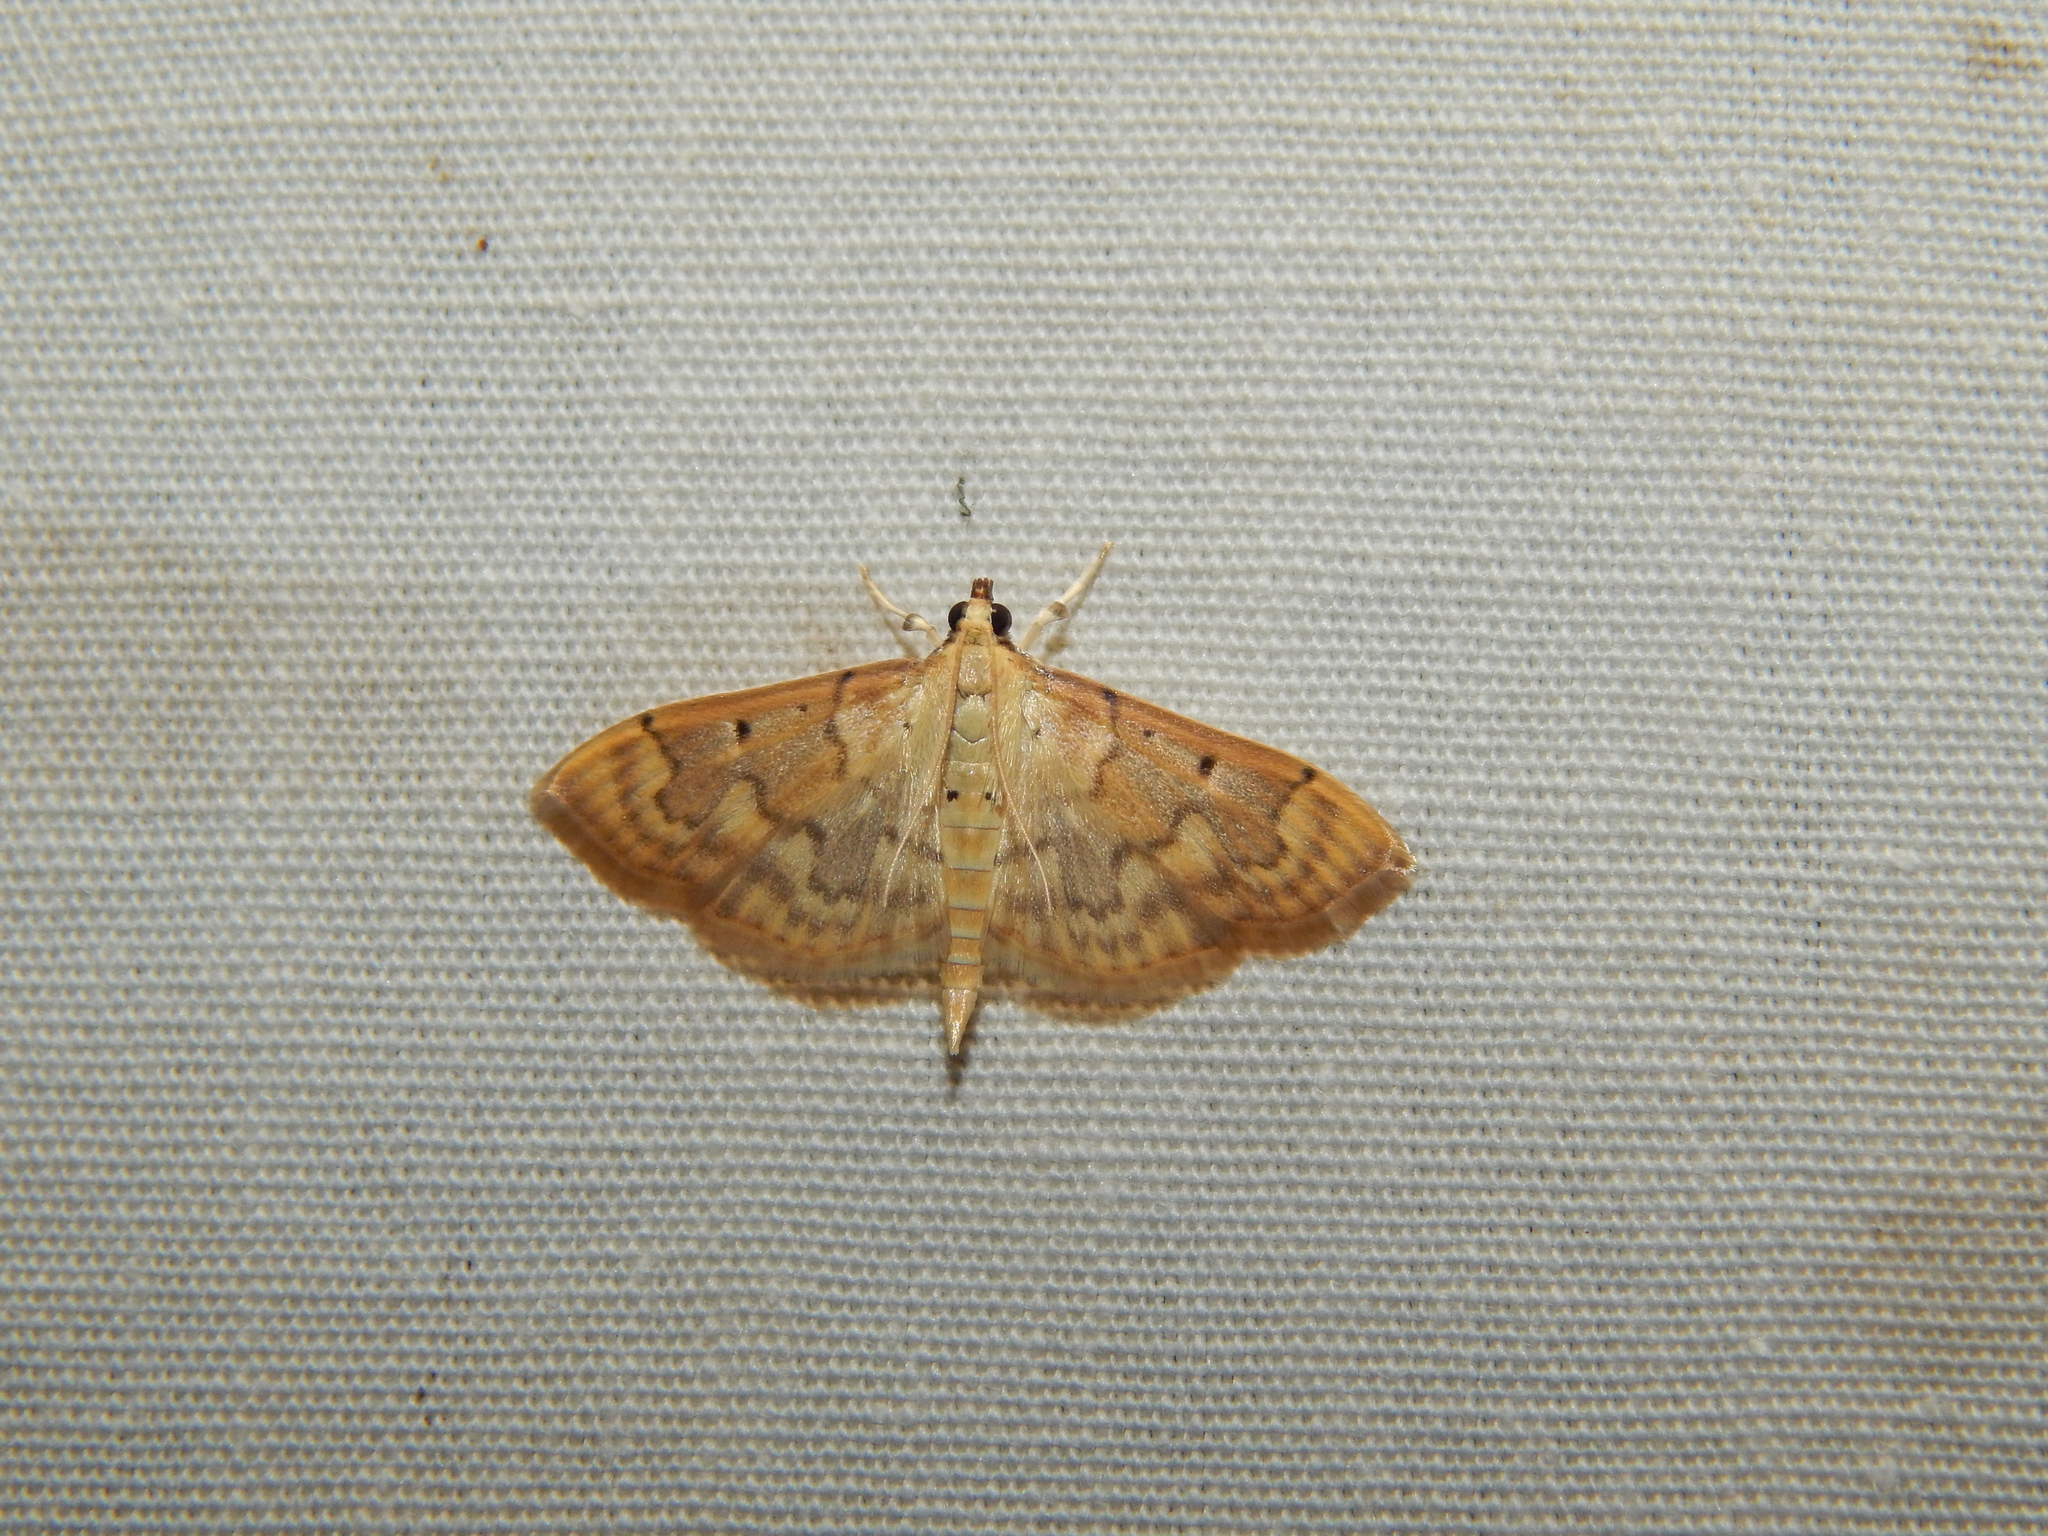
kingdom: Animalia
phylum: Arthropoda
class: Insecta
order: Lepidoptera
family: Crambidae
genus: Herpetogramma
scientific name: Herpetogramma mutualis
